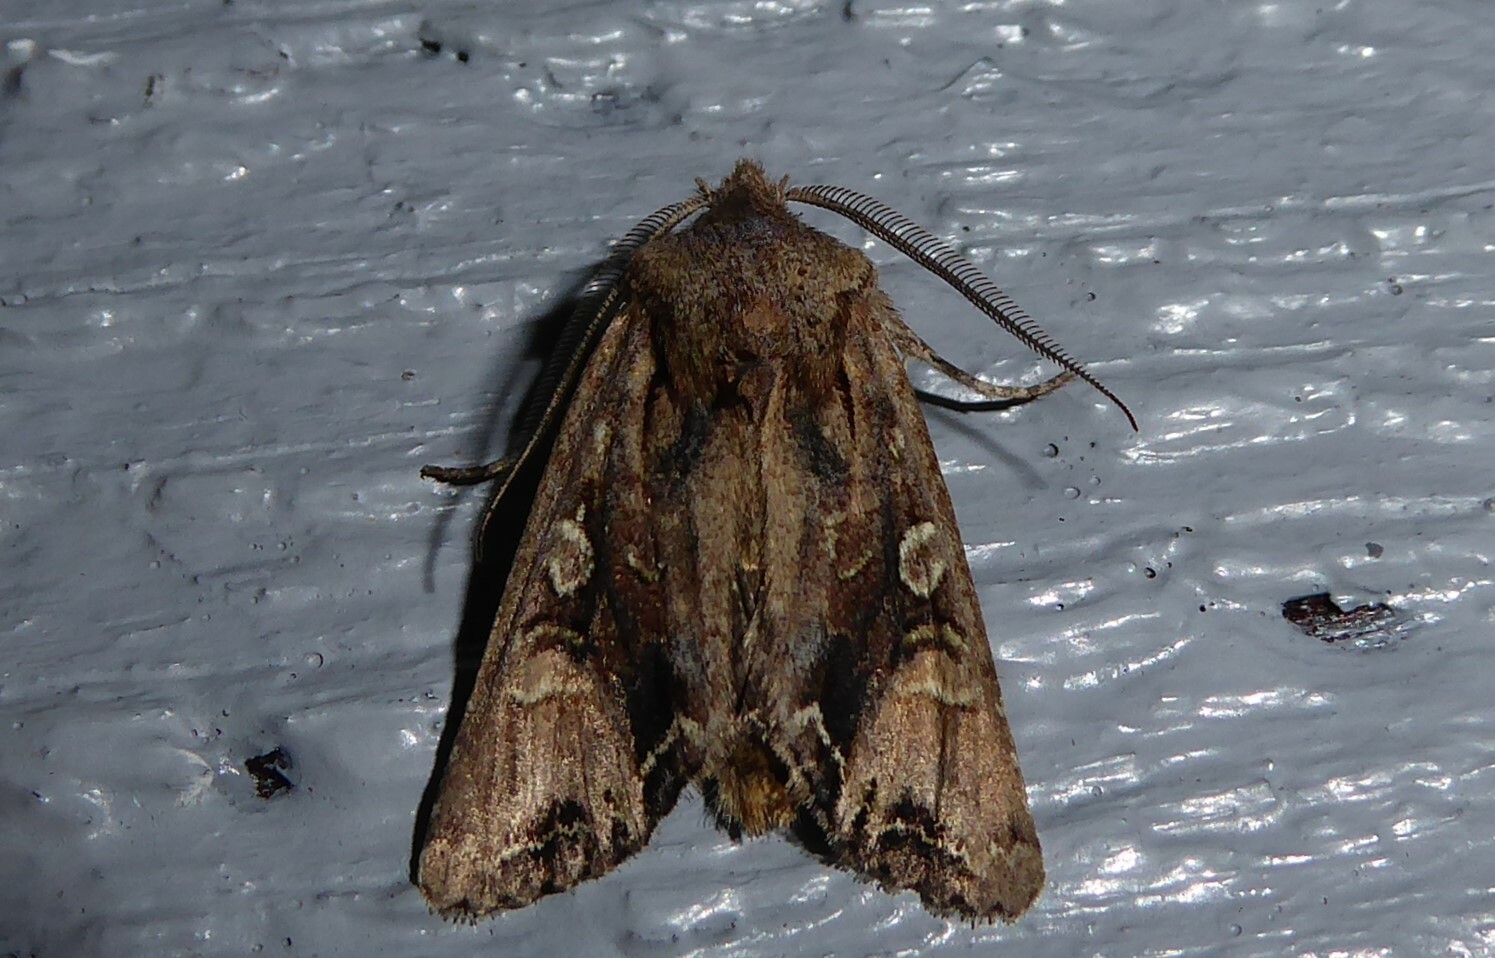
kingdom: Animalia
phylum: Arthropoda
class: Insecta
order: Lepidoptera
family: Noctuidae
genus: Ichneutica
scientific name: Ichneutica
